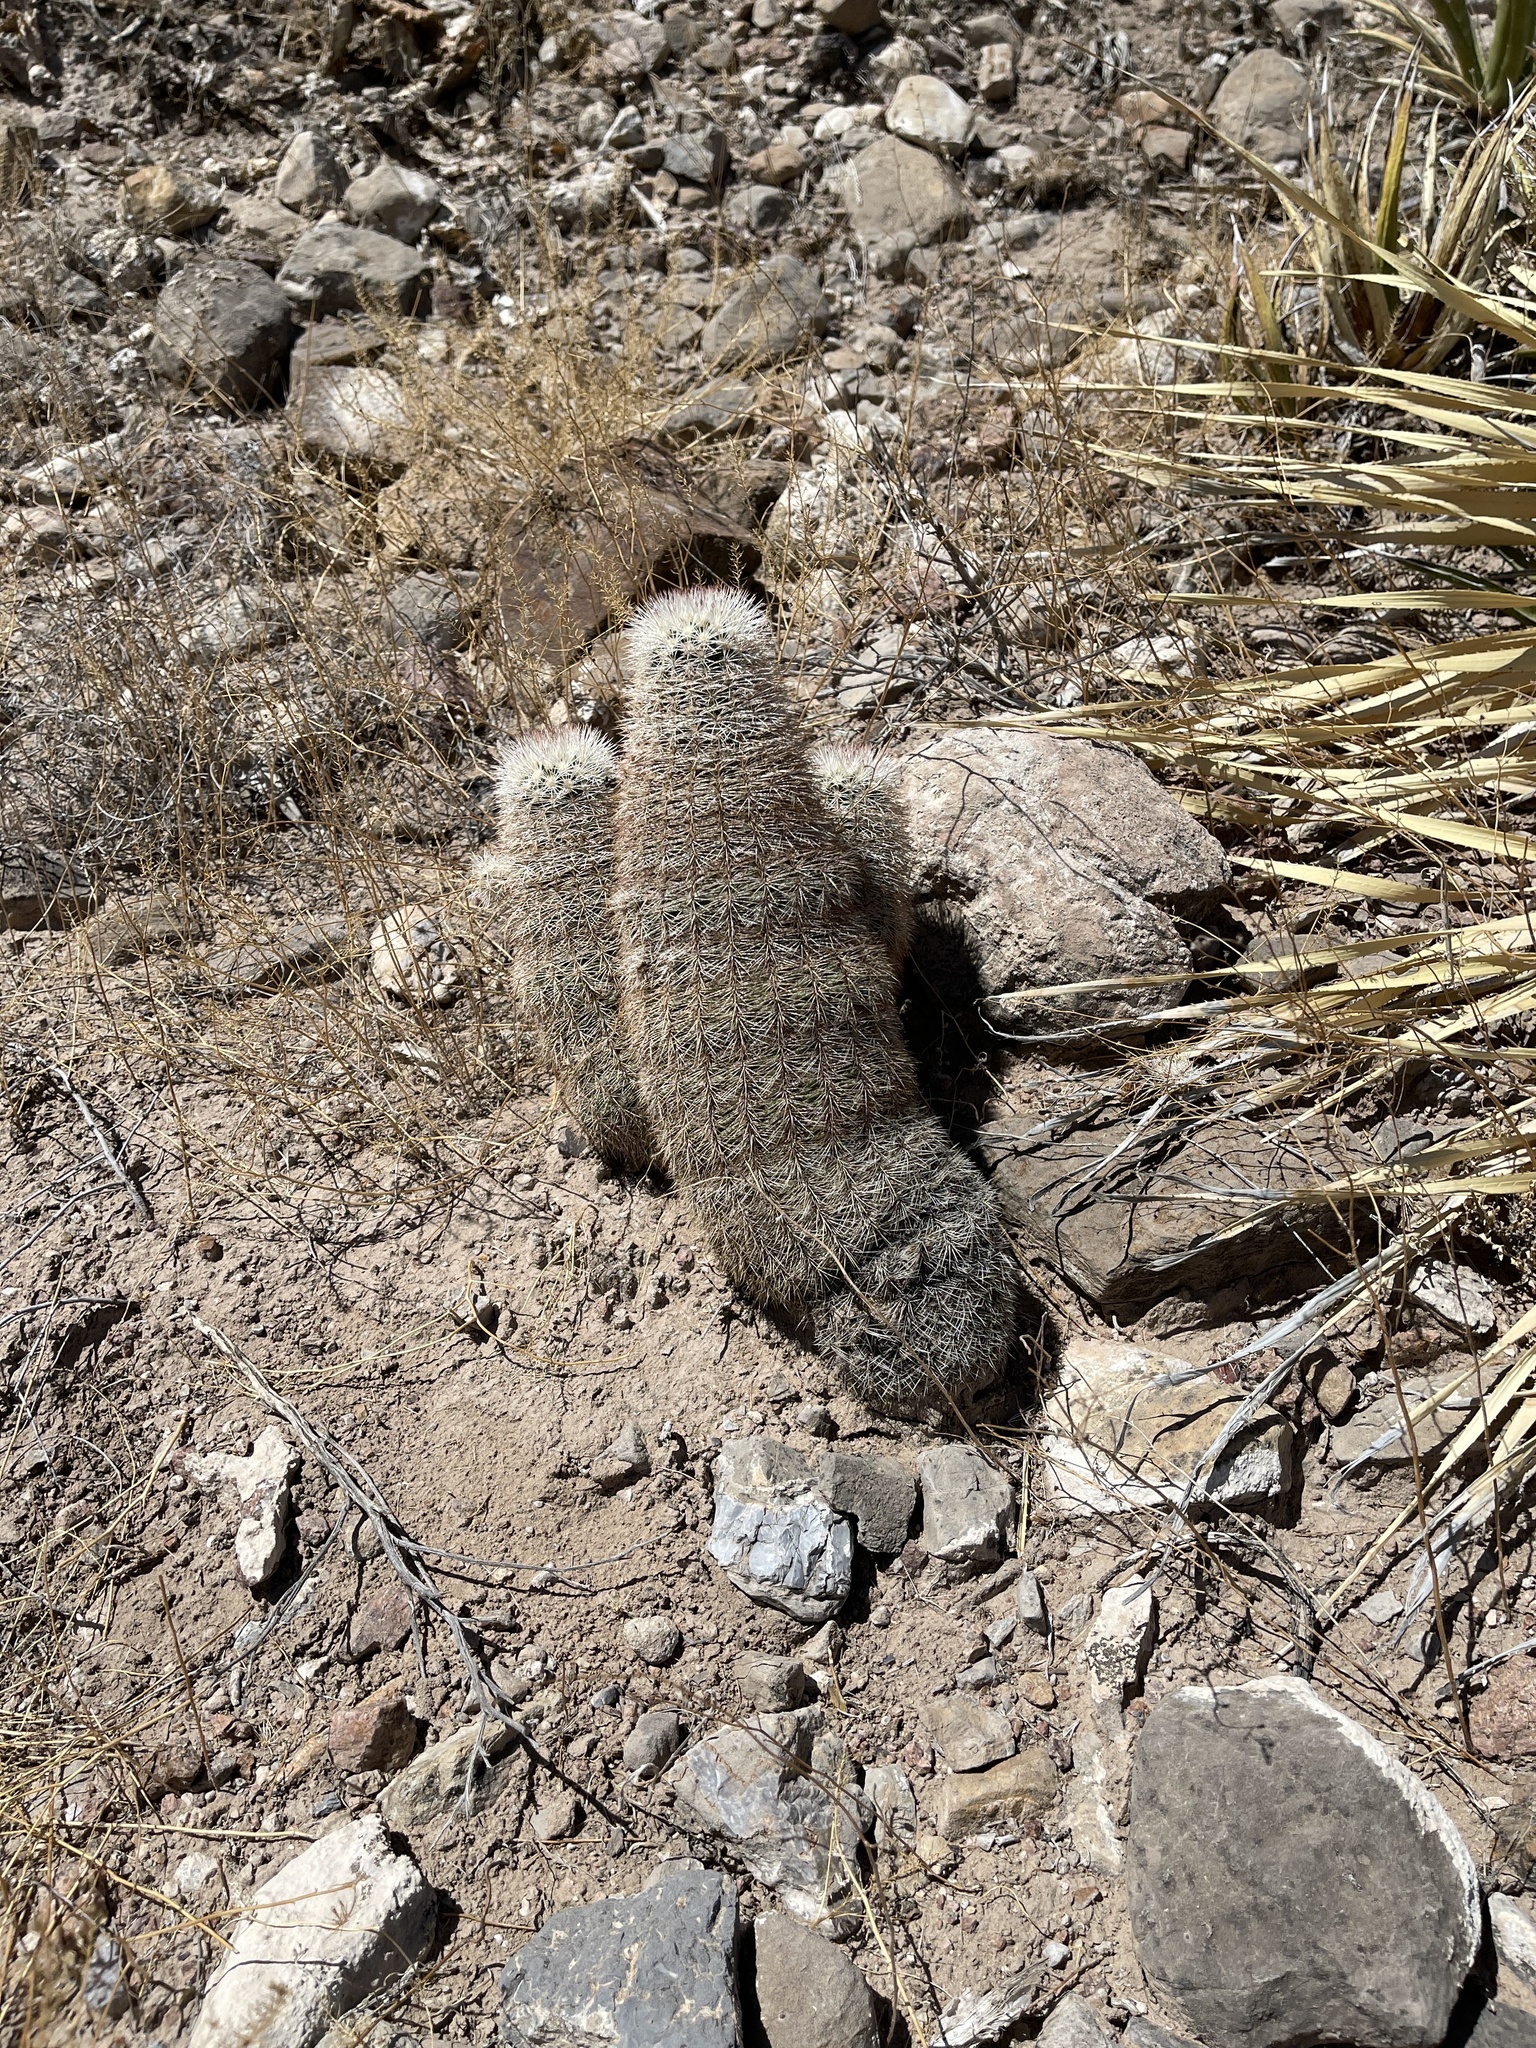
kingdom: Plantae
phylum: Tracheophyta
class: Magnoliopsida
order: Caryophyllales
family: Cactaceae
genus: Echinocereus
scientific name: Echinocereus dasyacanthus
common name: Spiny hedgehog cactus
